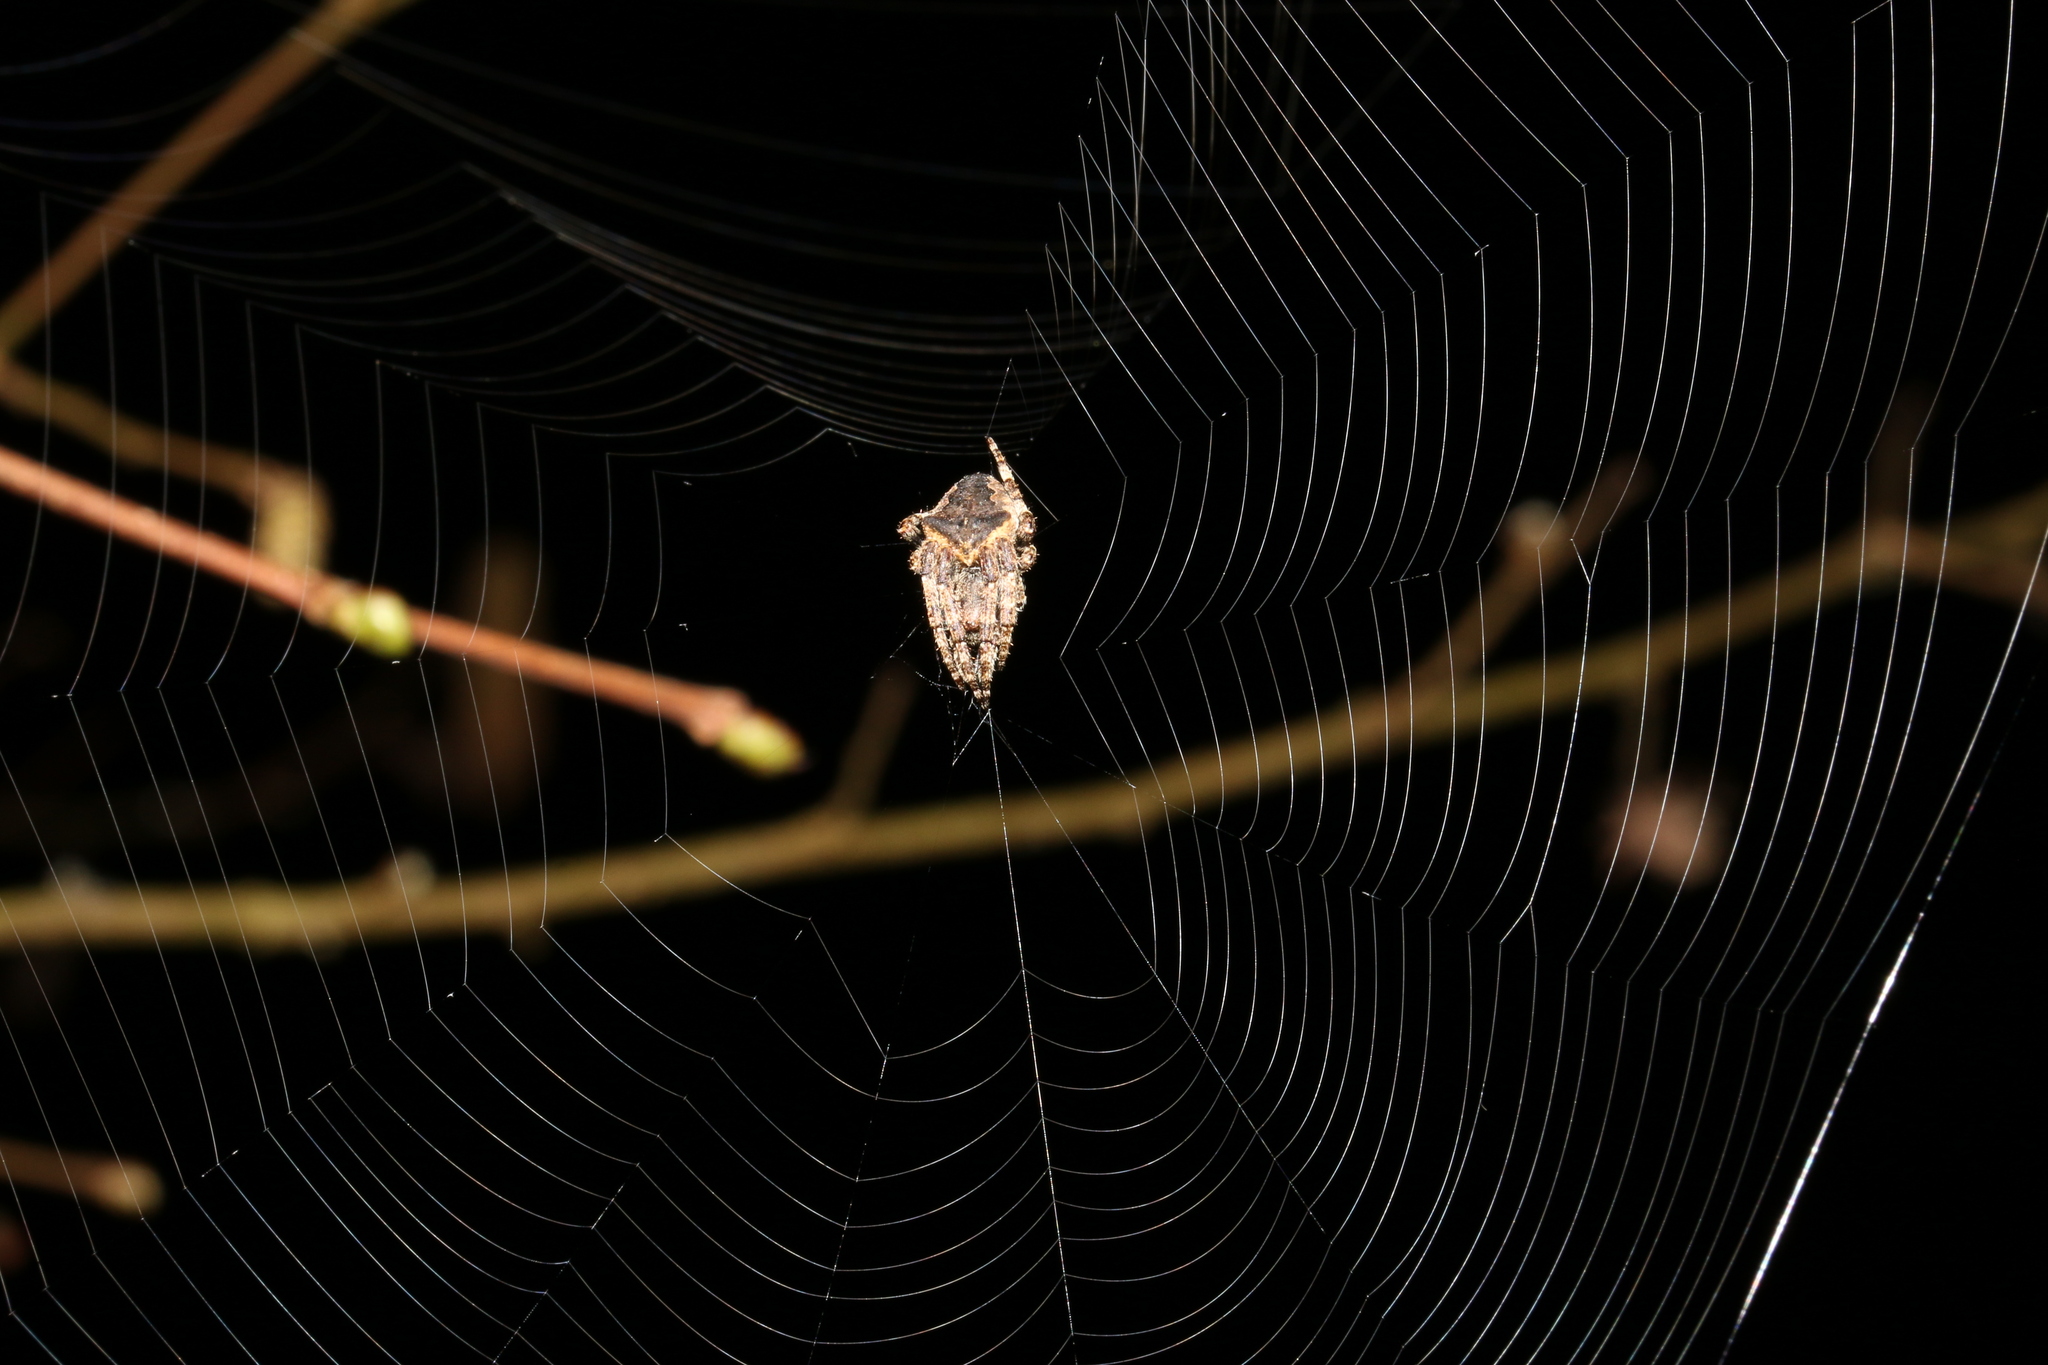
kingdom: Animalia
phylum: Arthropoda
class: Arachnida
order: Araneae
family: Araneidae
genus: Araneus
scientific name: Araneus angulatus
